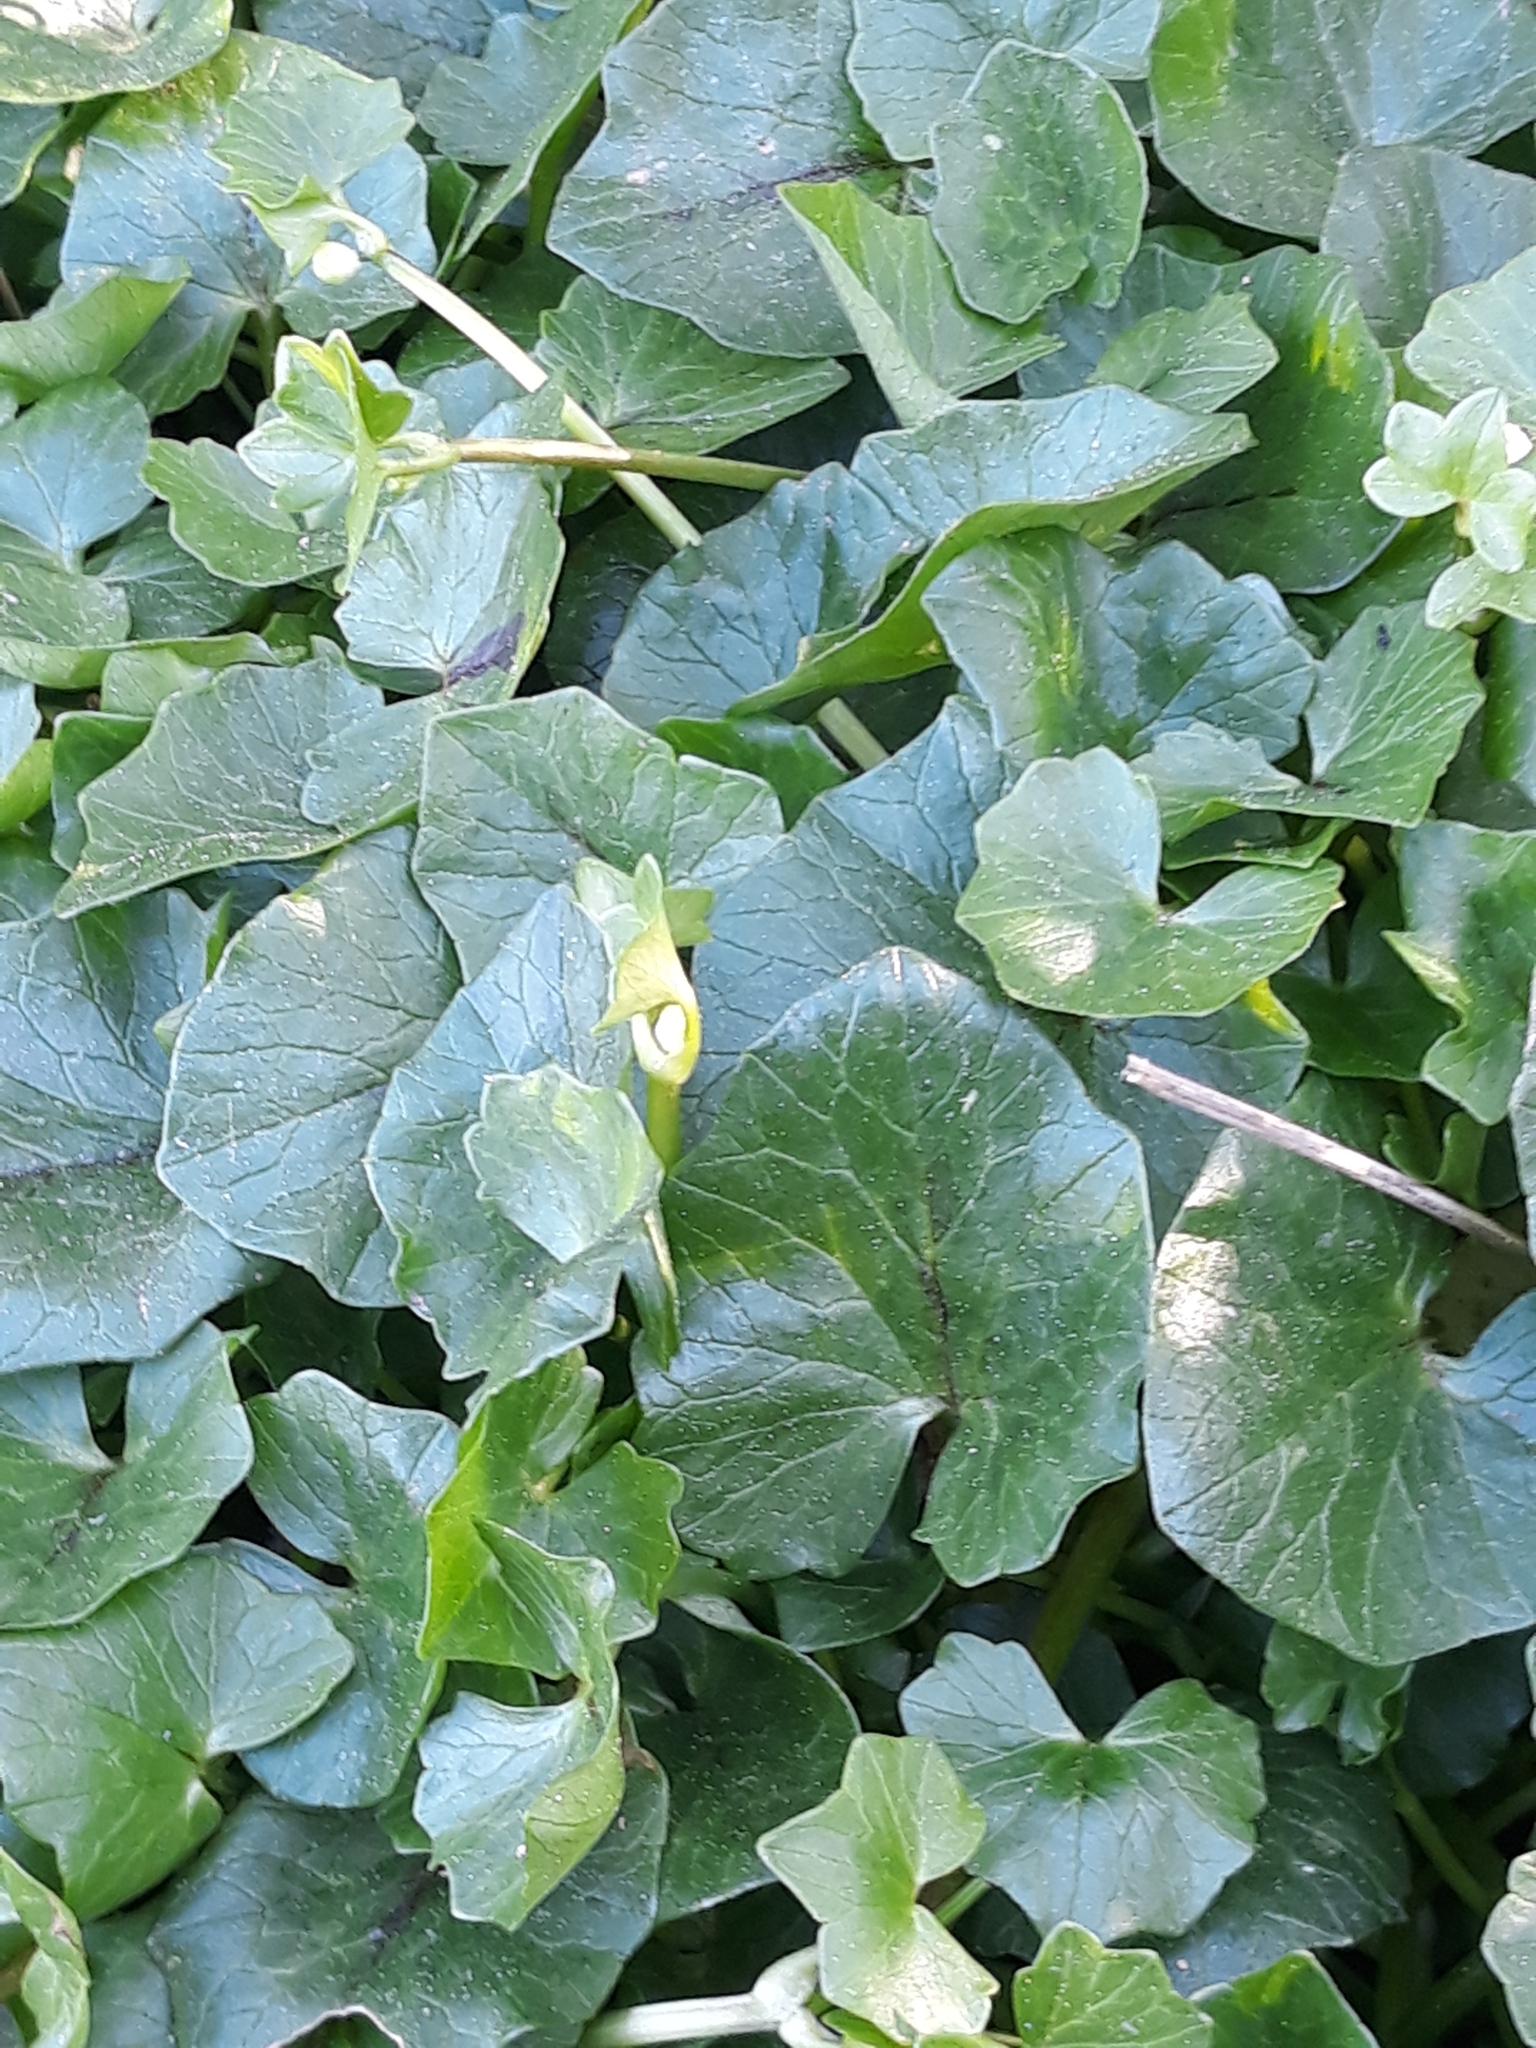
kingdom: Plantae
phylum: Tracheophyta
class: Magnoliopsida
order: Ranunculales
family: Ranunculaceae
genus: Ficaria
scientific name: Ficaria verna
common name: Lesser celandine
